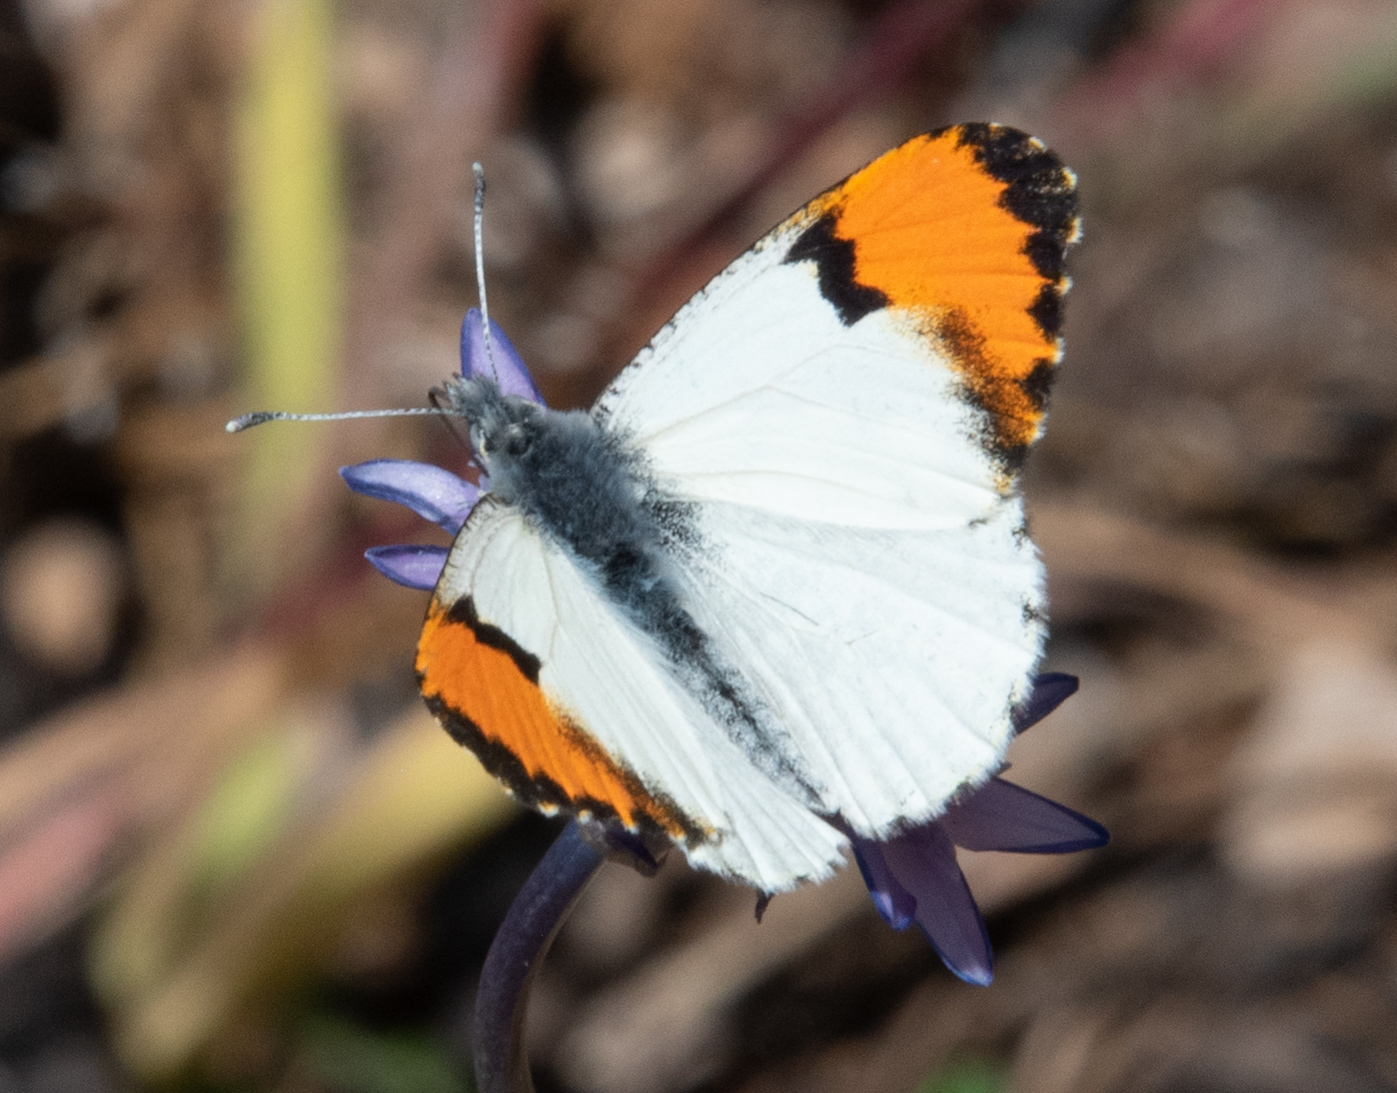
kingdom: Animalia
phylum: Arthropoda
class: Insecta
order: Lepidoptera
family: Pieridae
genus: Anthocharis
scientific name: Anthocharis sara
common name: Sara's orangetip
